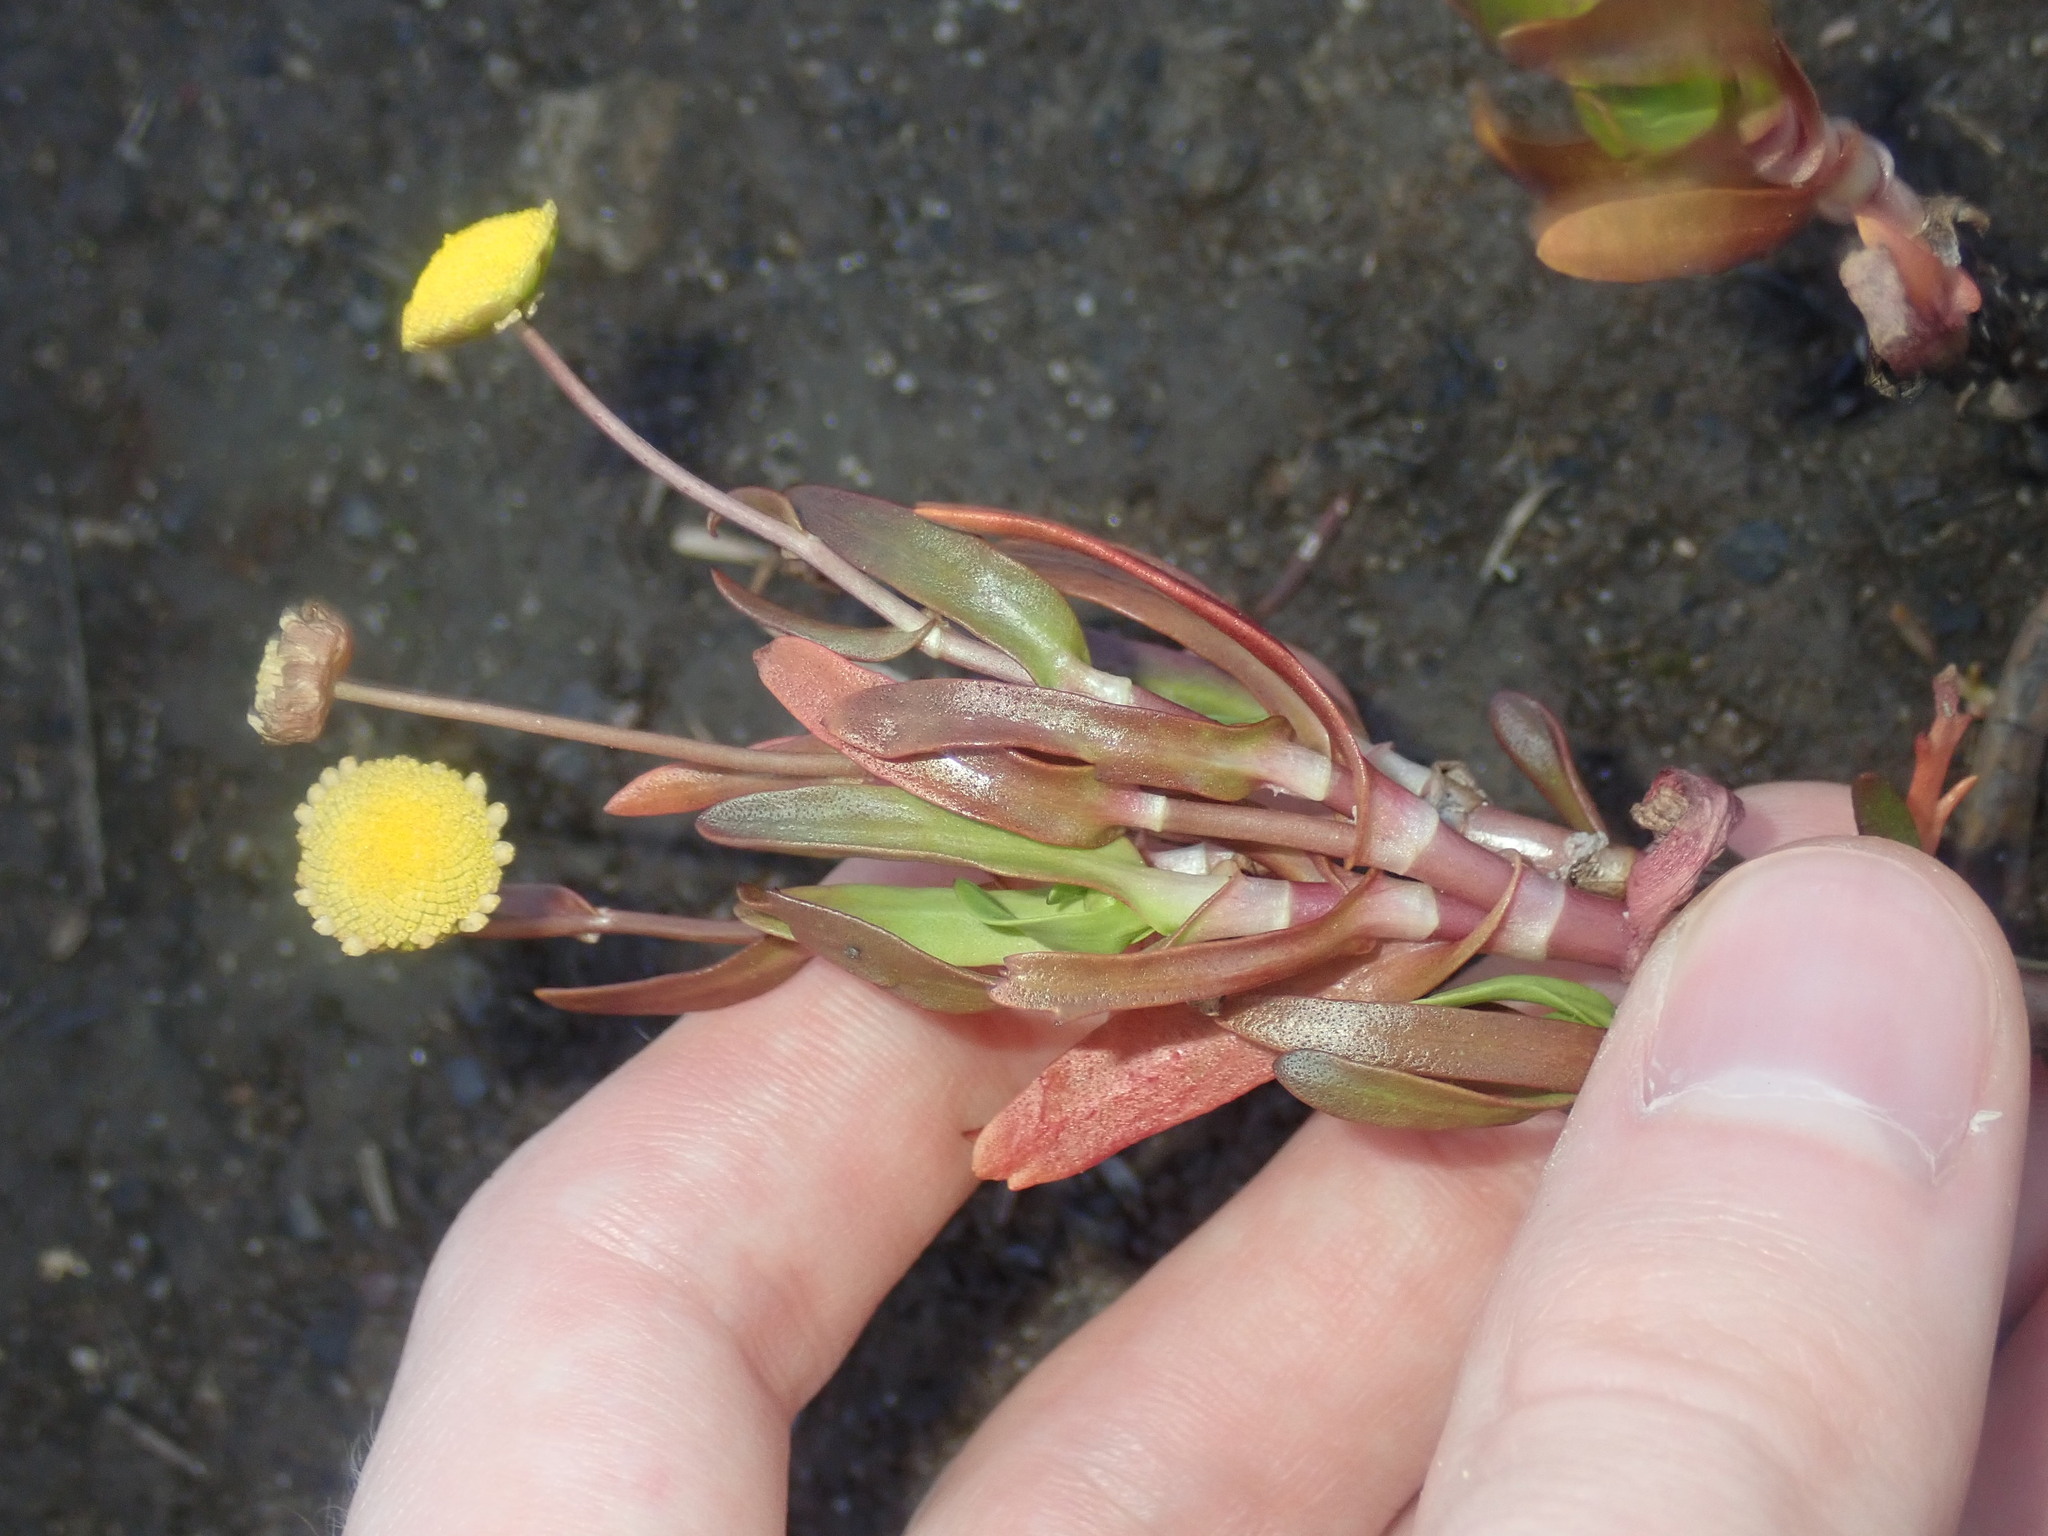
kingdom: Plantae
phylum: Tracheophyta
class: Magnoliopsida
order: Asterales
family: Asteraceae
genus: Cotula
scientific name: Cotula coronopifolia
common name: Buttonweed
